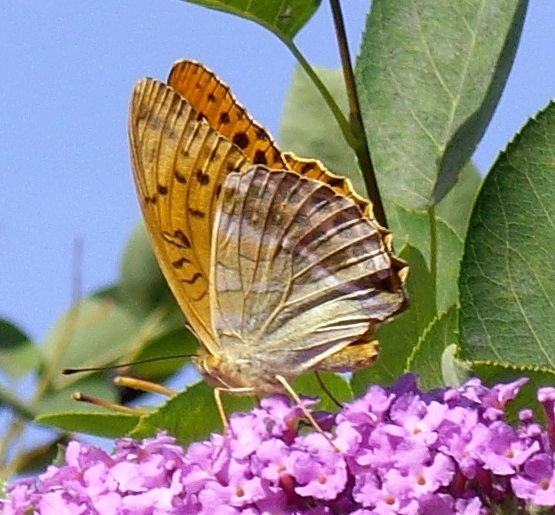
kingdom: Animalia
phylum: Arthropoda
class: Insecta
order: Lepidoptera
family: Nymphalidae
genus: Argynnis
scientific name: Argynnis paphia
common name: Silver-washed fritillary
